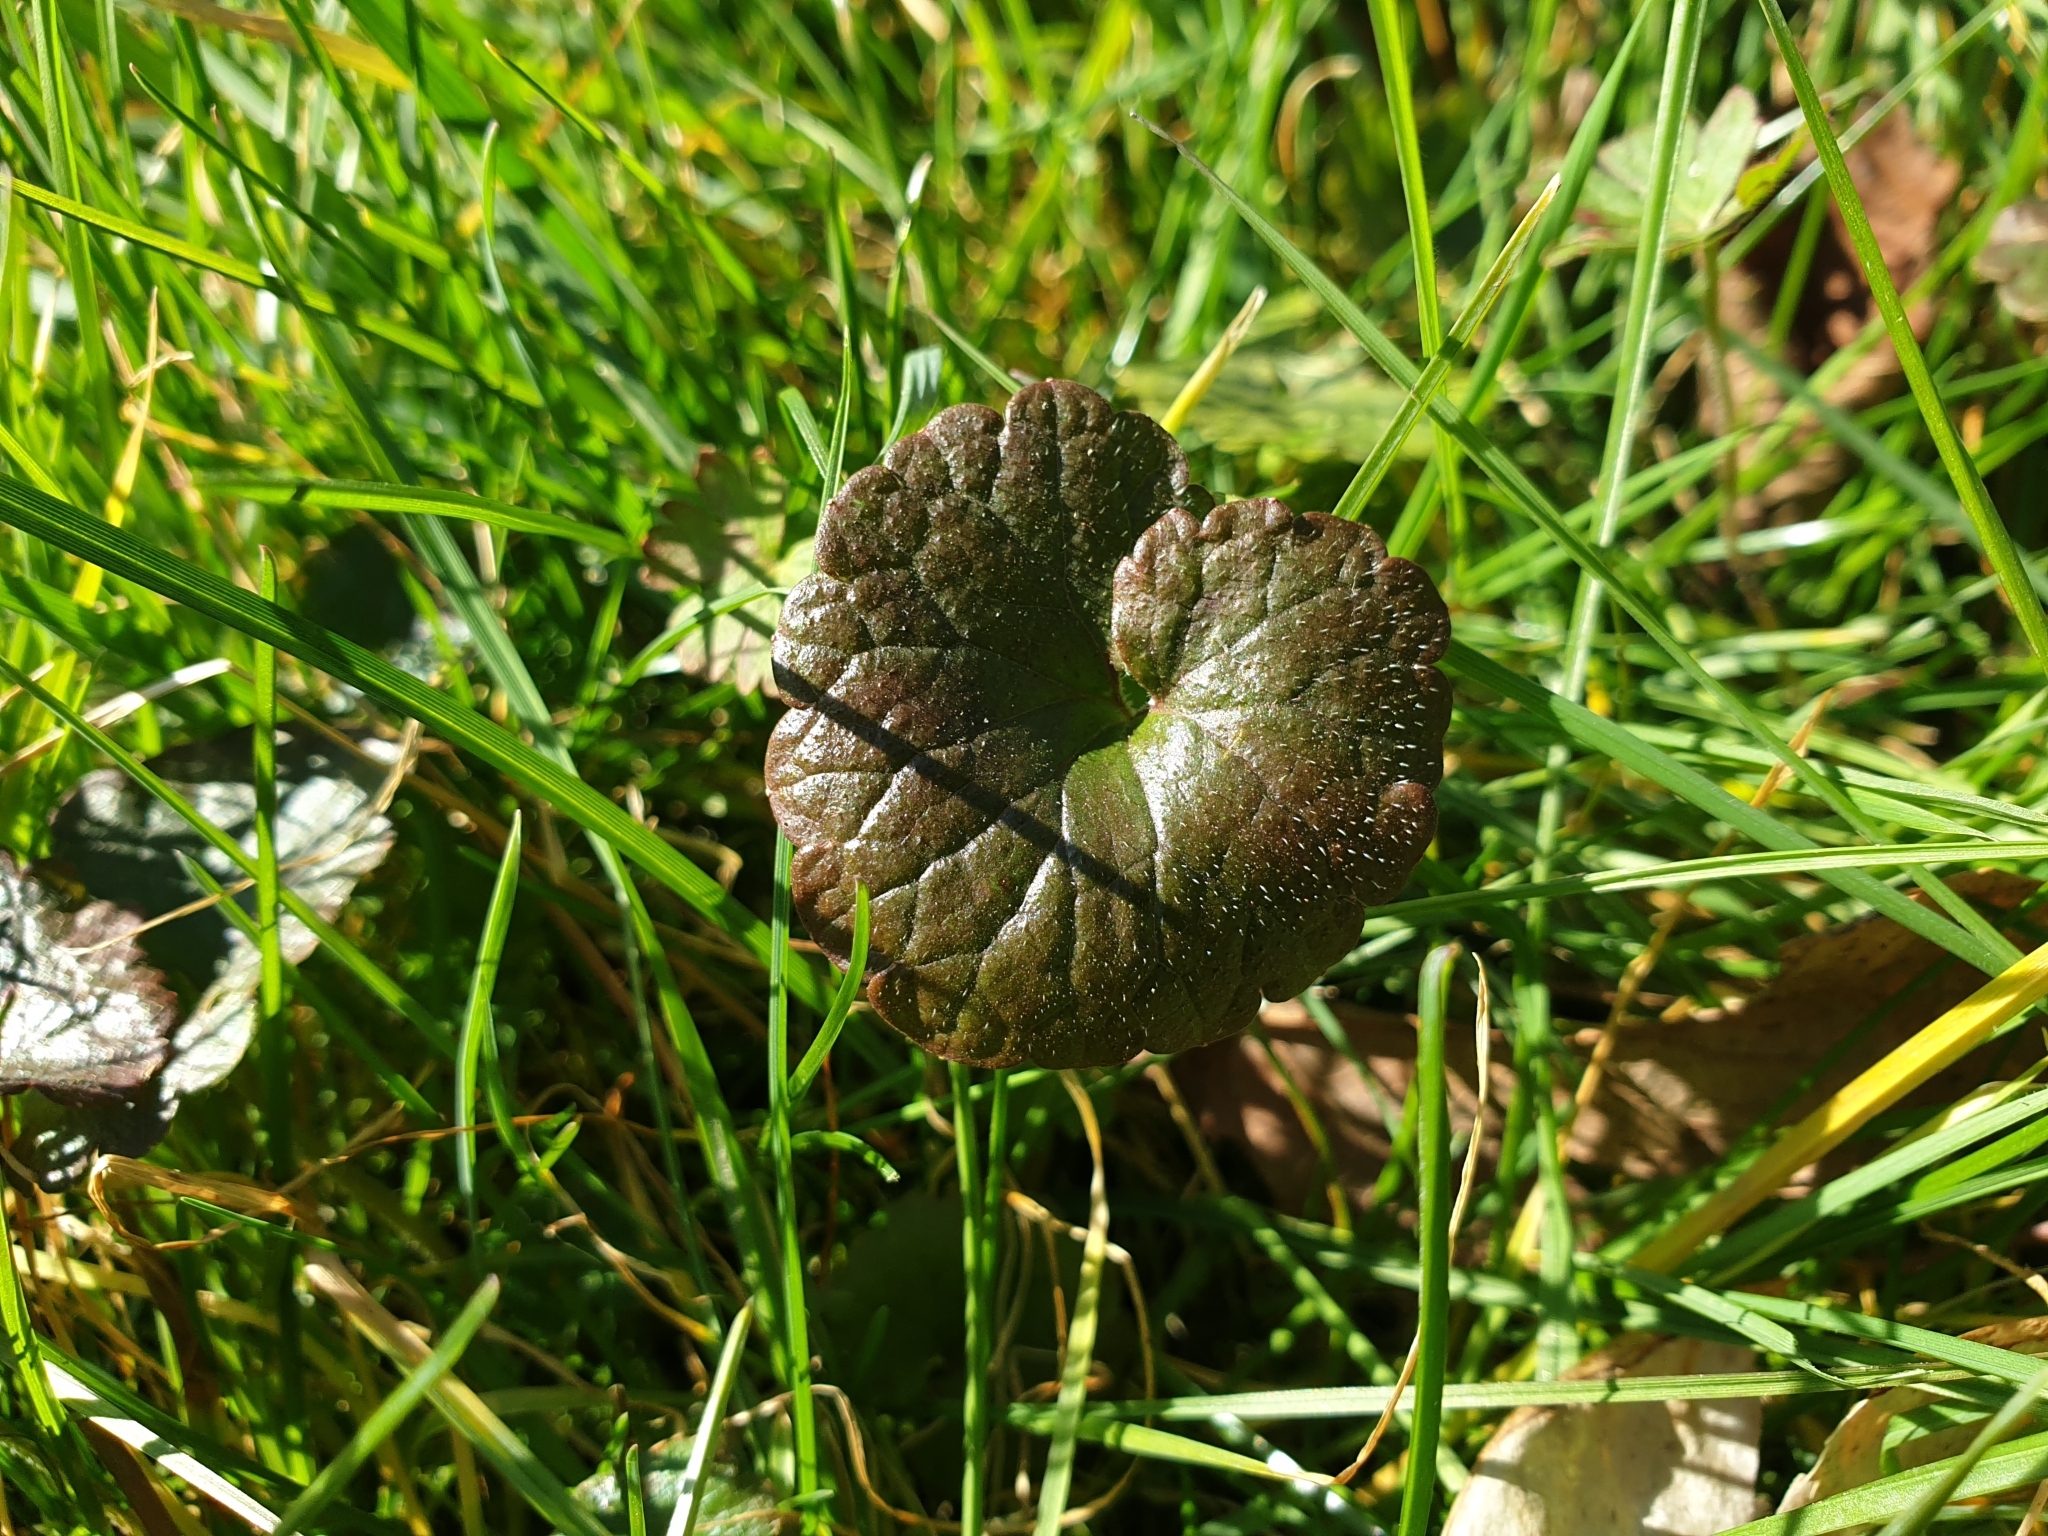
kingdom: Plantae
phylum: Tracheophyta
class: Magnoliopsida
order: Lamiales
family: Lamiaceae
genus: Glechoma
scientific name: Glechoma hederacea
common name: Ground ivy
